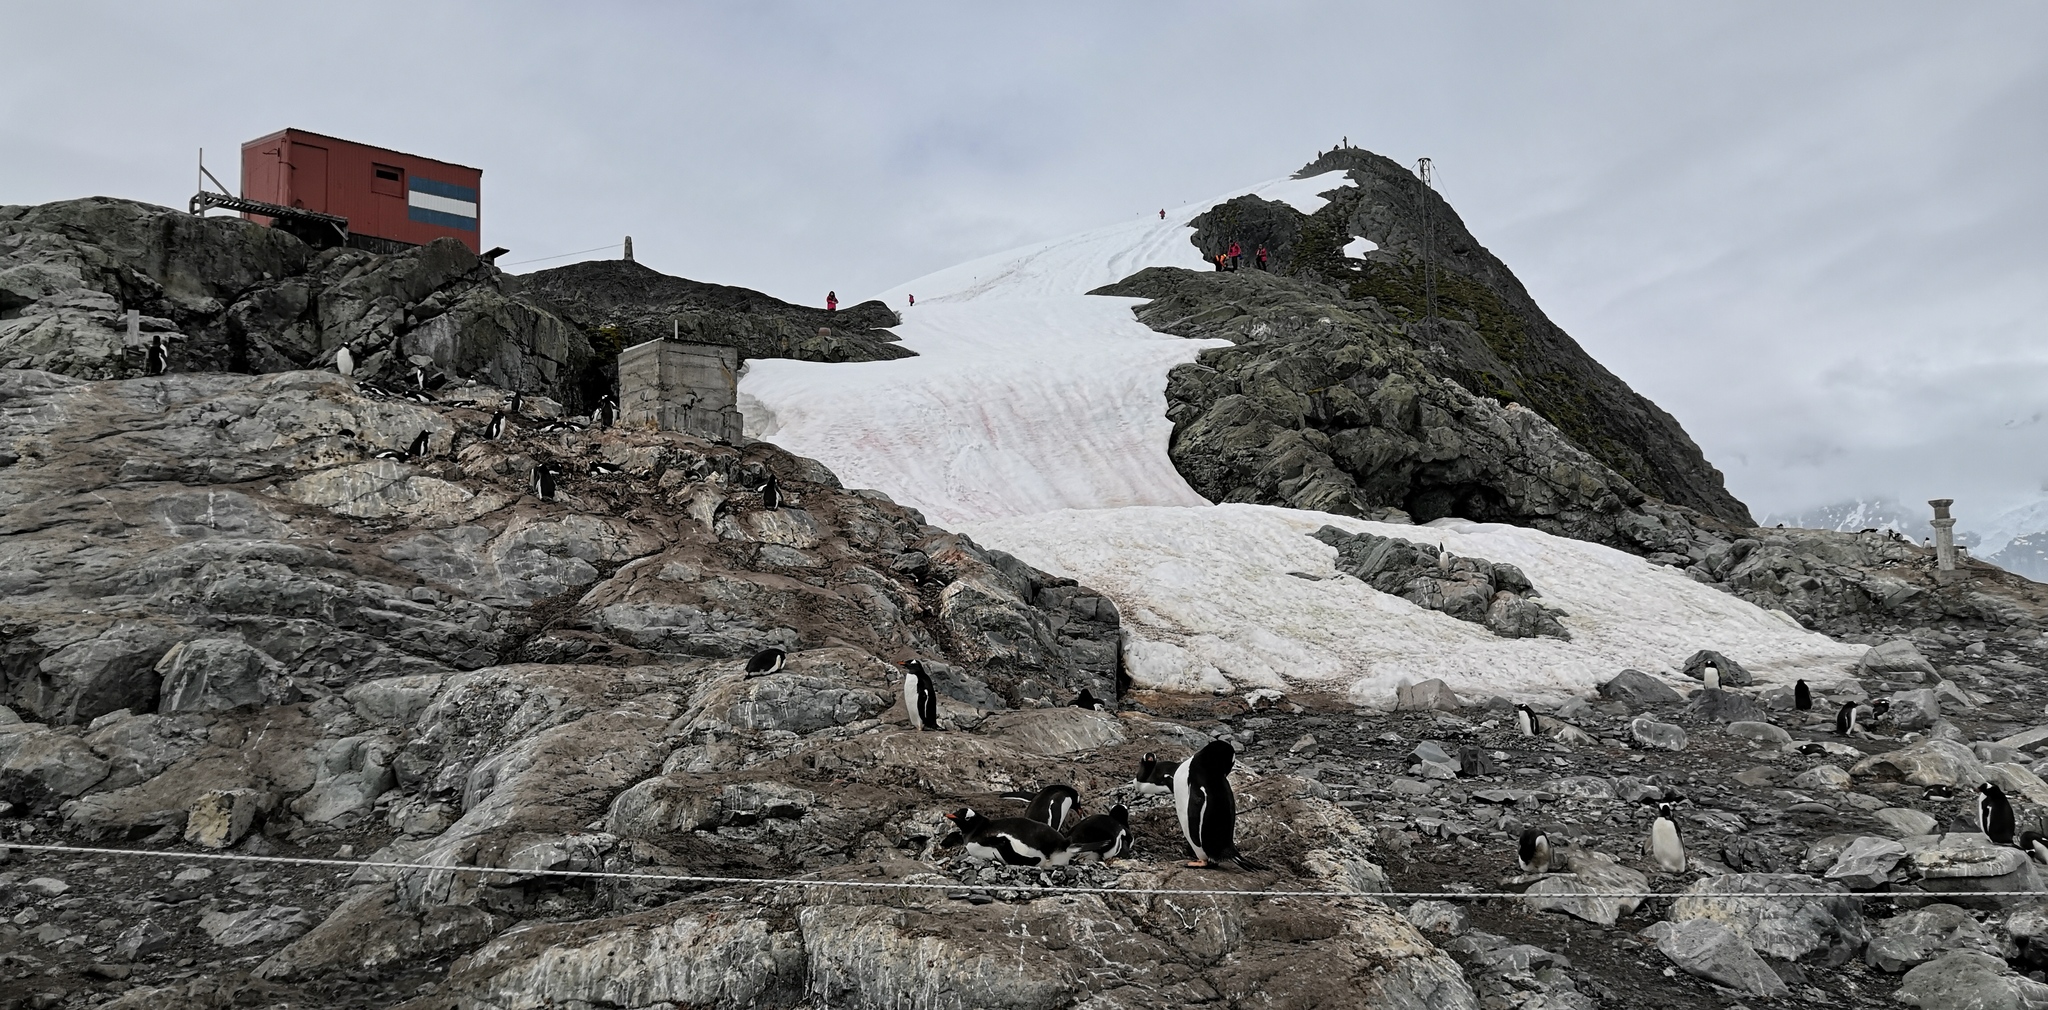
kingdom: Animalia
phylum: Chordata
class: Aves
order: Sphenisciformes
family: Spheniscidae
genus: Pygoscelis
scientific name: Pygoscelis papua
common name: Gentoo penguin
